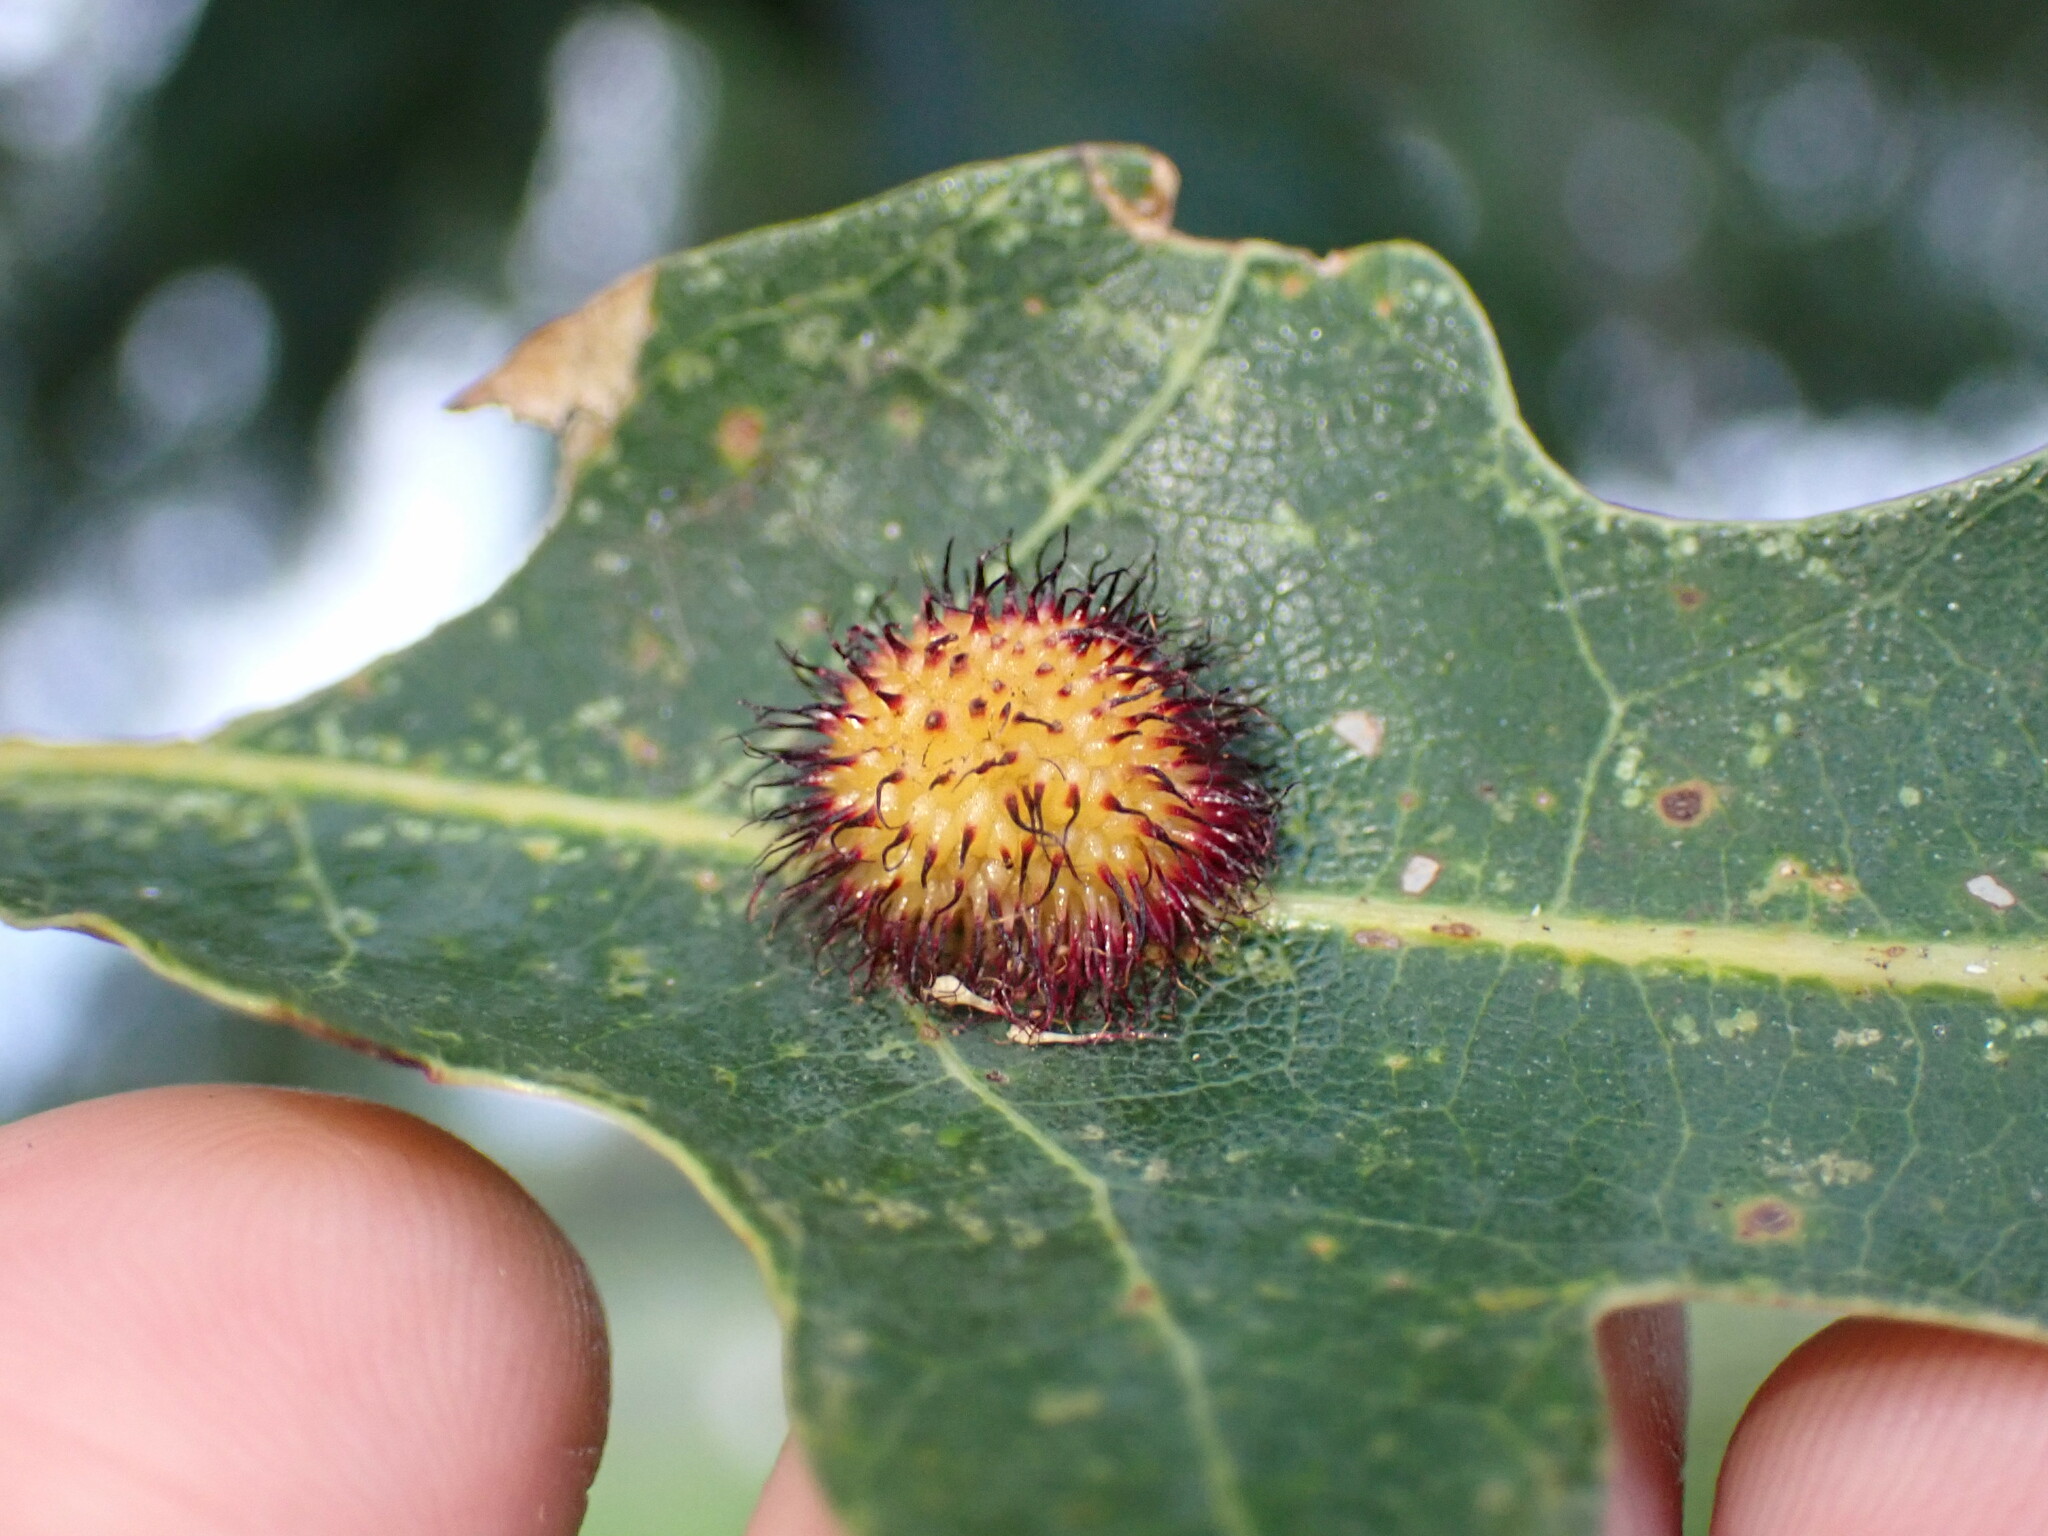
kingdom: Animalia
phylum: Arthropoda
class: Insecta
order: Hymenoptera
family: Cynipidae
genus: Acraspis
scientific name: Acraspis erinacei
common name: Hedgehog gall wasp
